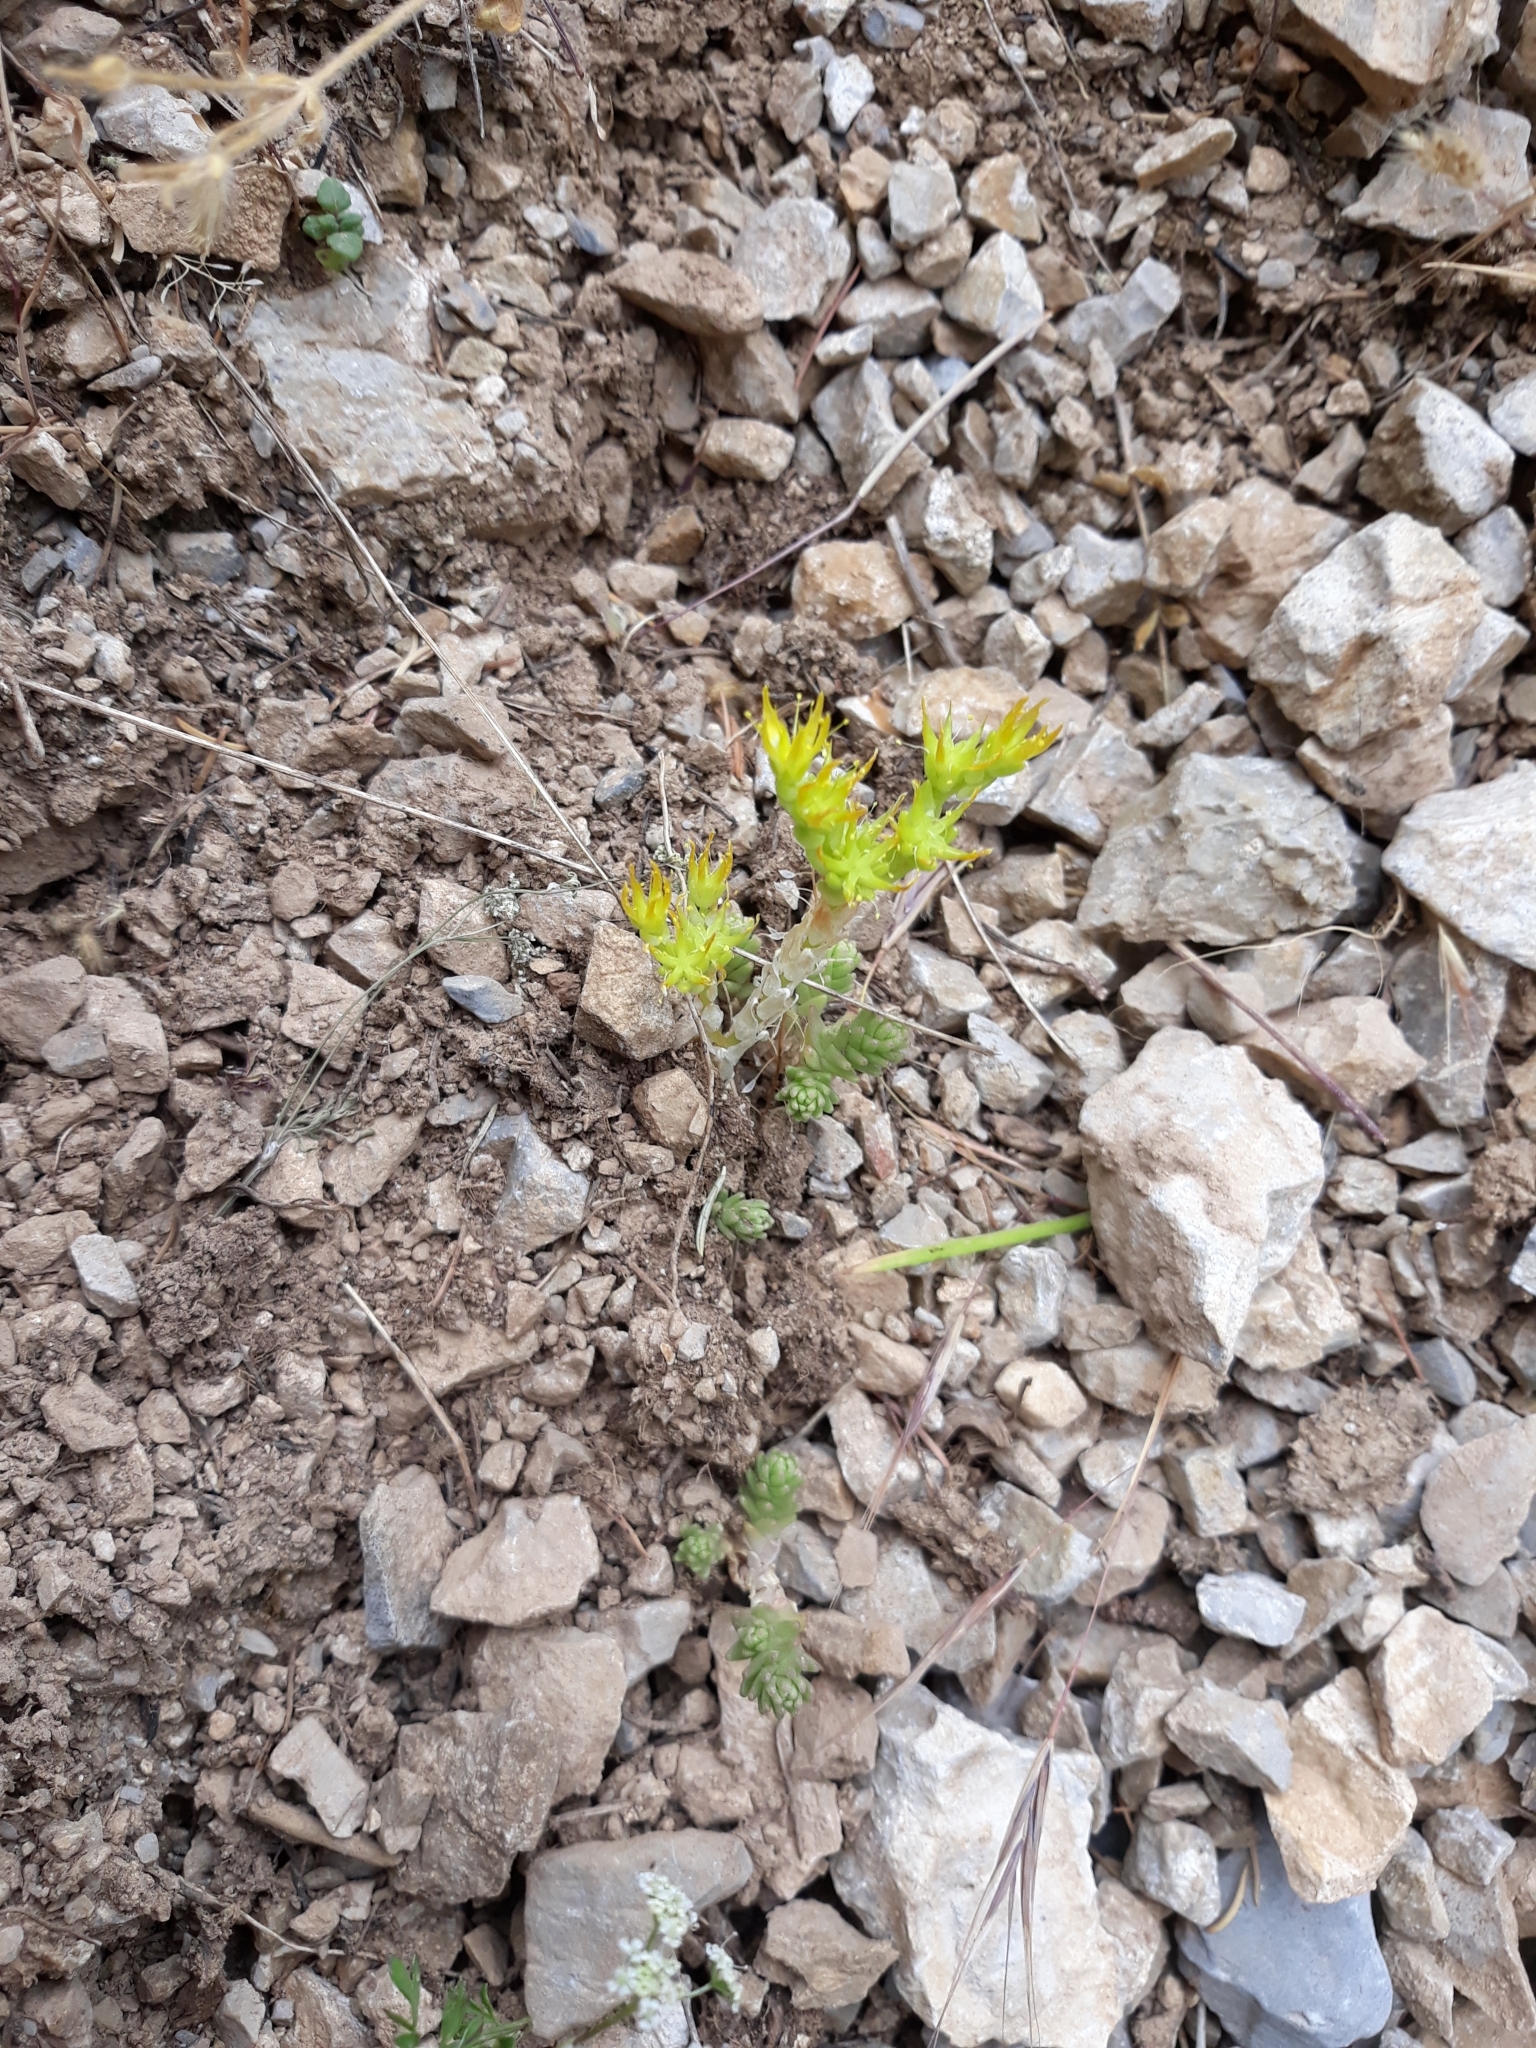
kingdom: Plantae
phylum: Tracheophyta
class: Magnoliopsida
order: Saxifragales
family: Crassulaceae
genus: Sedum
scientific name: Sedum acre
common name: Biting stonecrop
